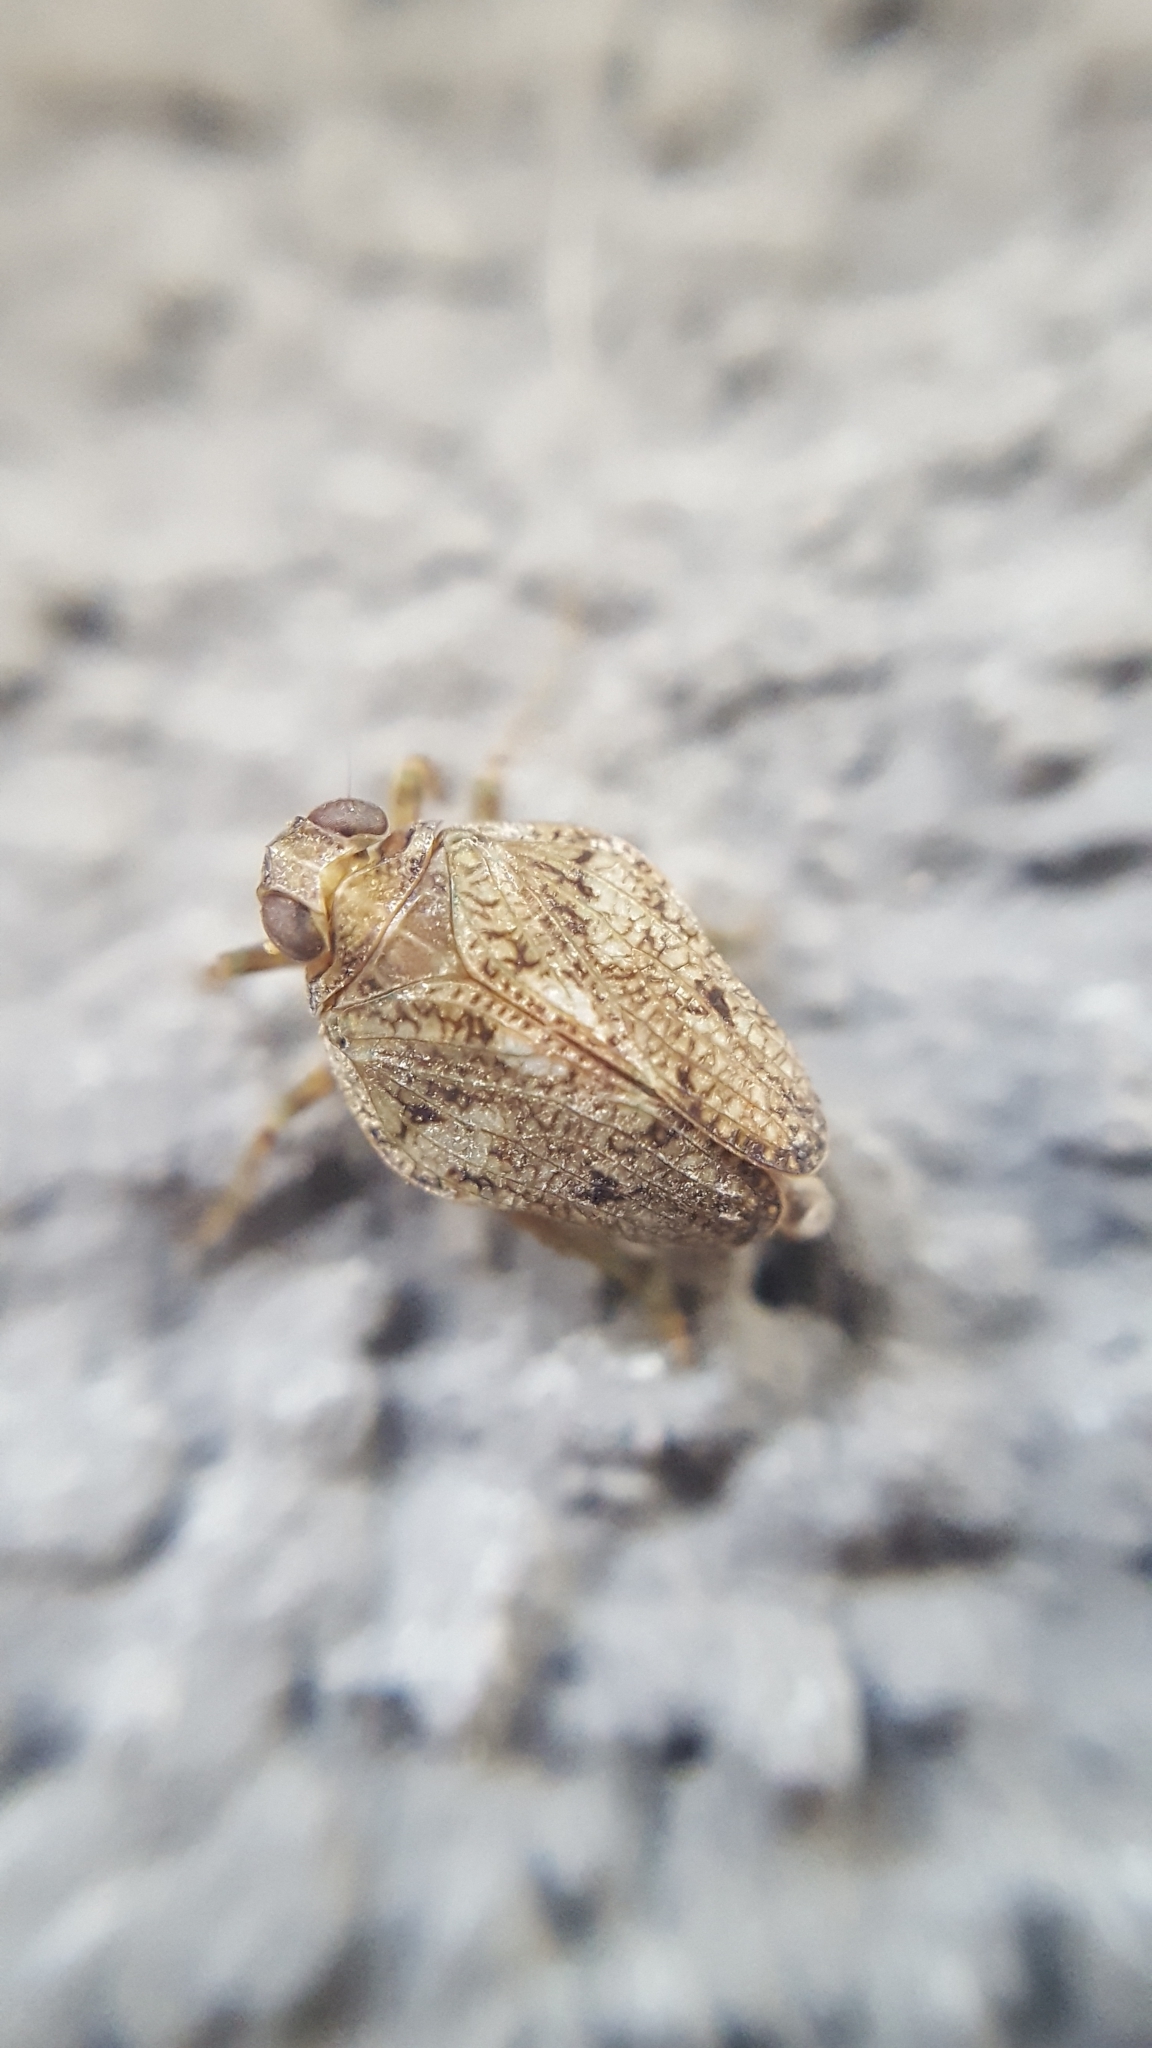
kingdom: Animalia
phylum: Arthropoda
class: Insecta
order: Hemiptera
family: Issidae
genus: Issus
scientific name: Issus coleoptratus
